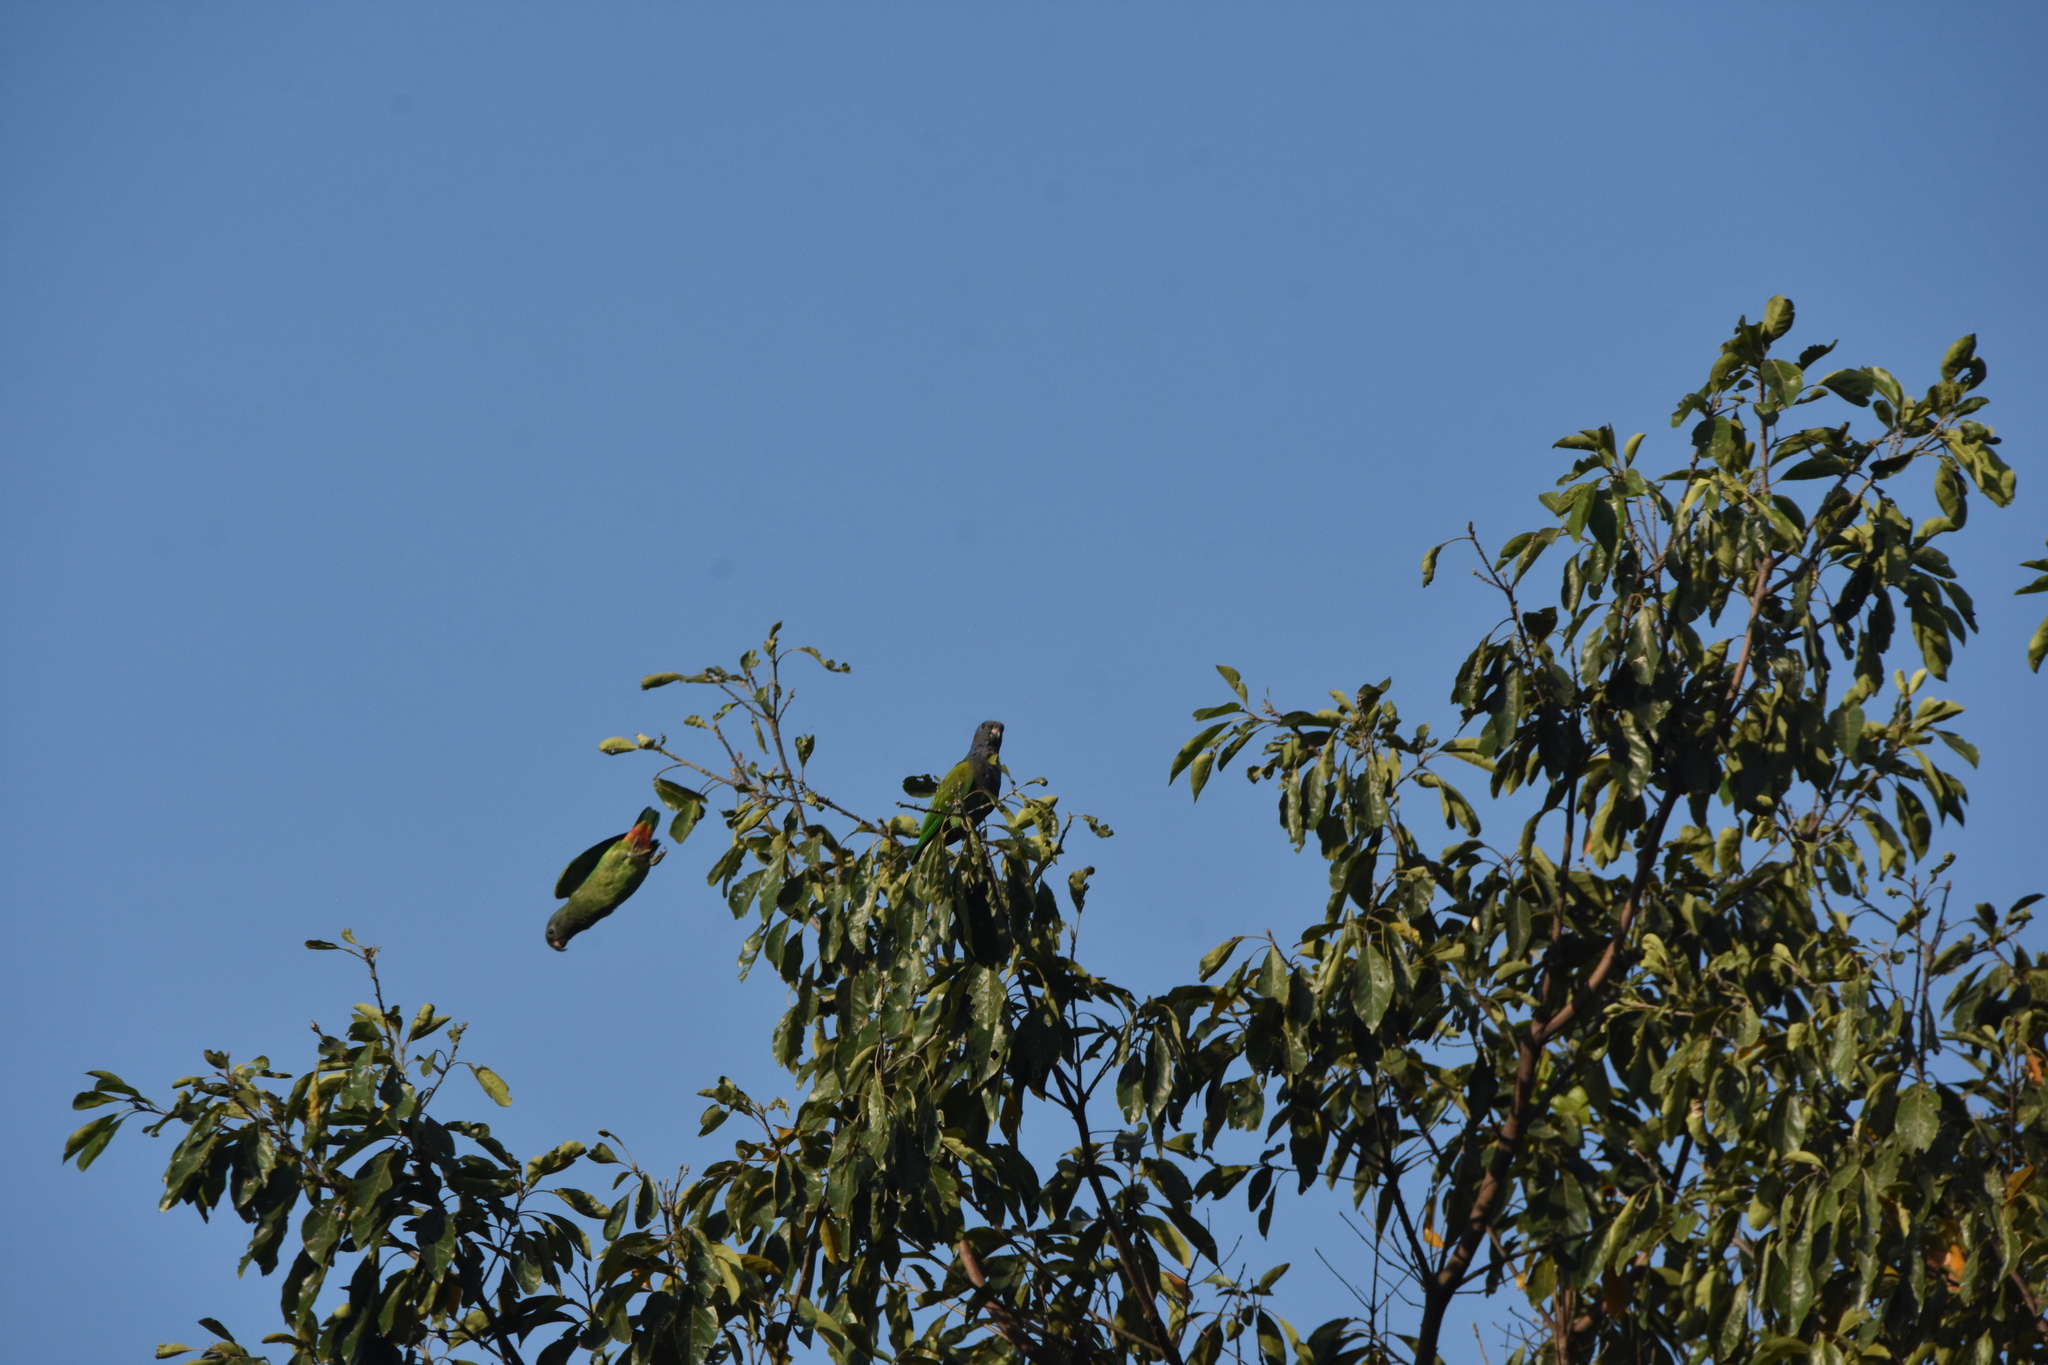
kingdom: Animalia
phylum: Chordata
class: Aves
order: Psittaciformes
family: Psittacidae
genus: Pionus
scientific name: Pionus menstruus
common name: Blue-headed parrot
